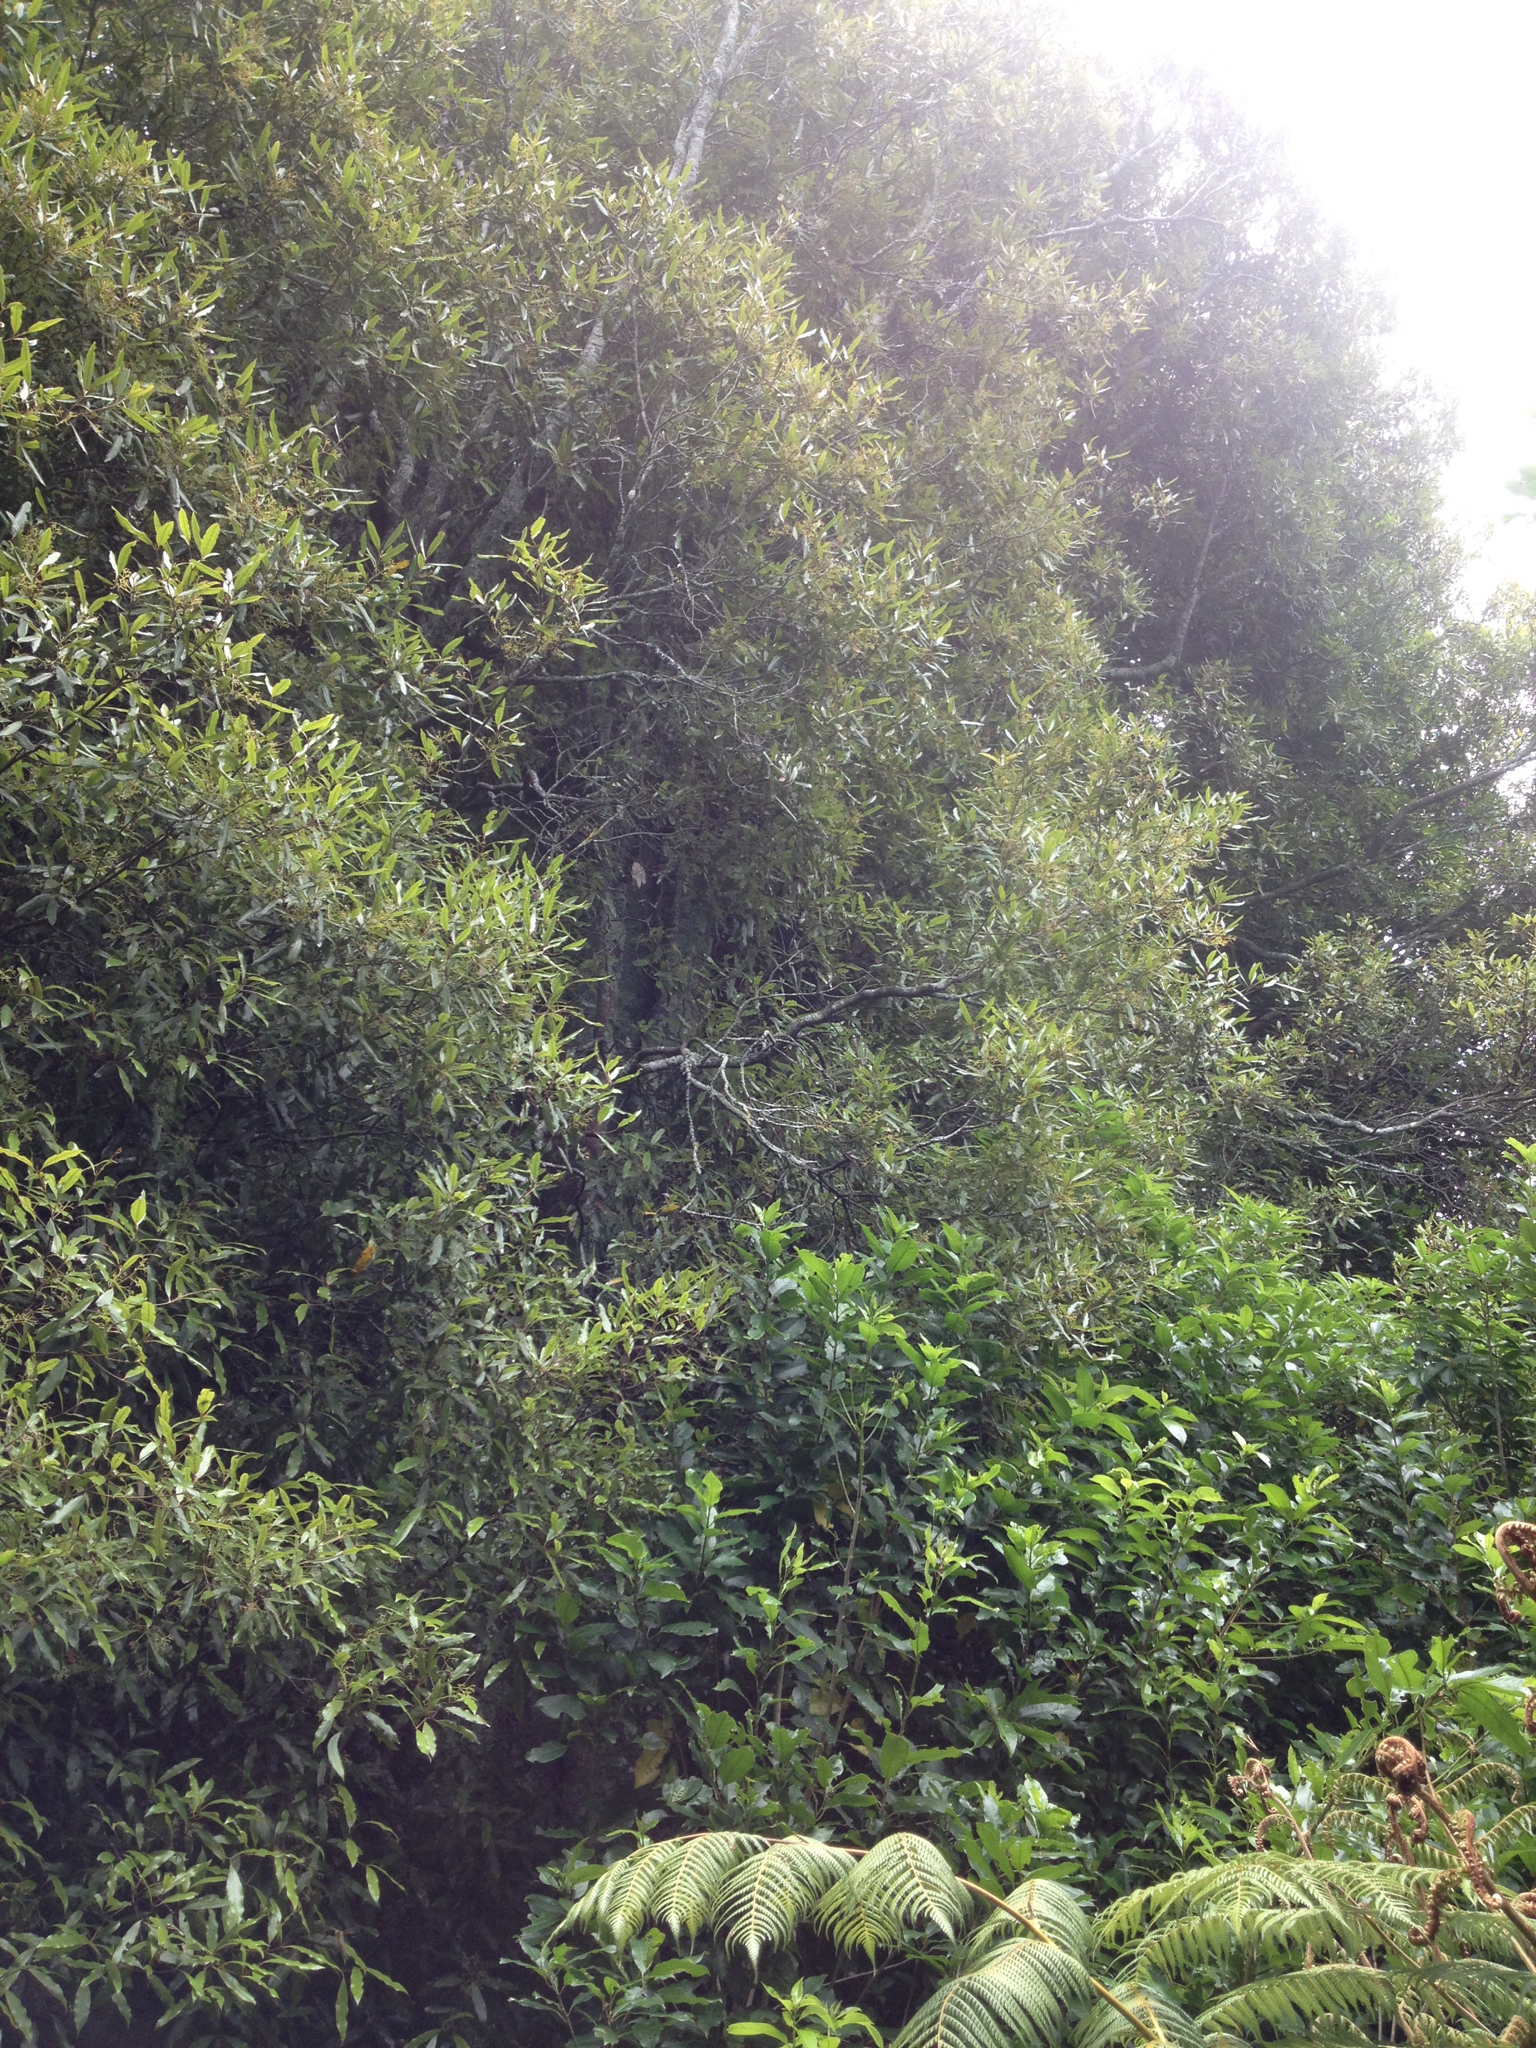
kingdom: Plantae
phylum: Tracheophyta
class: Magnoliopsida
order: Laurales
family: Lauraceae
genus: Beilschmiedia
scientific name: Beilschmiedia tawa
